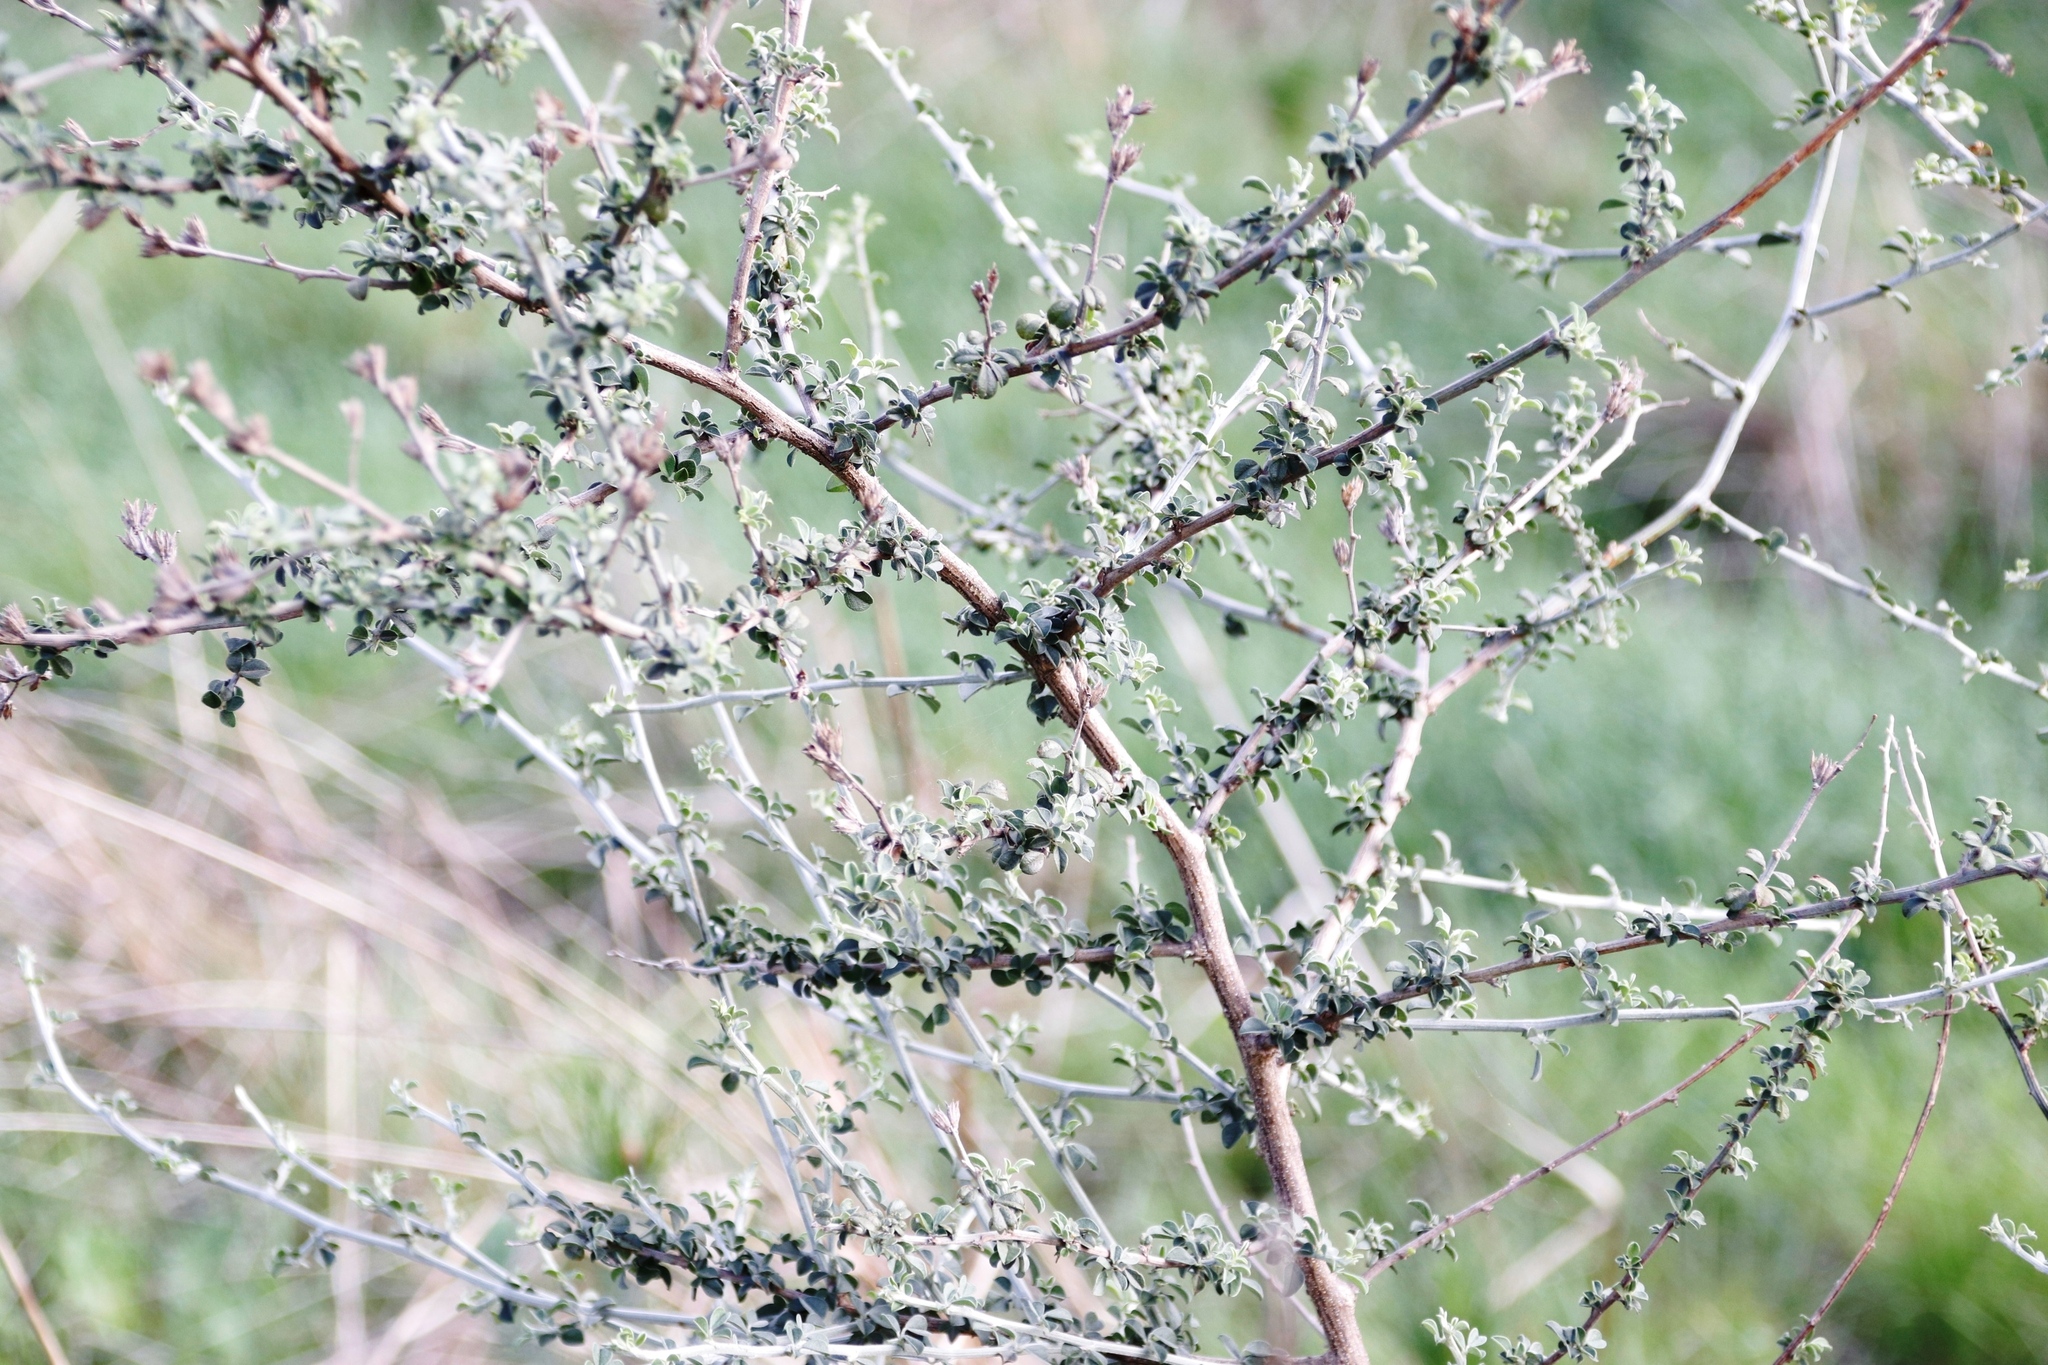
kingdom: Plantae
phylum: Tracheophyta
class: Magnoliopsida
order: Fabales
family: Fabaceae
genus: Psoralea
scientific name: Psoralea hirta
